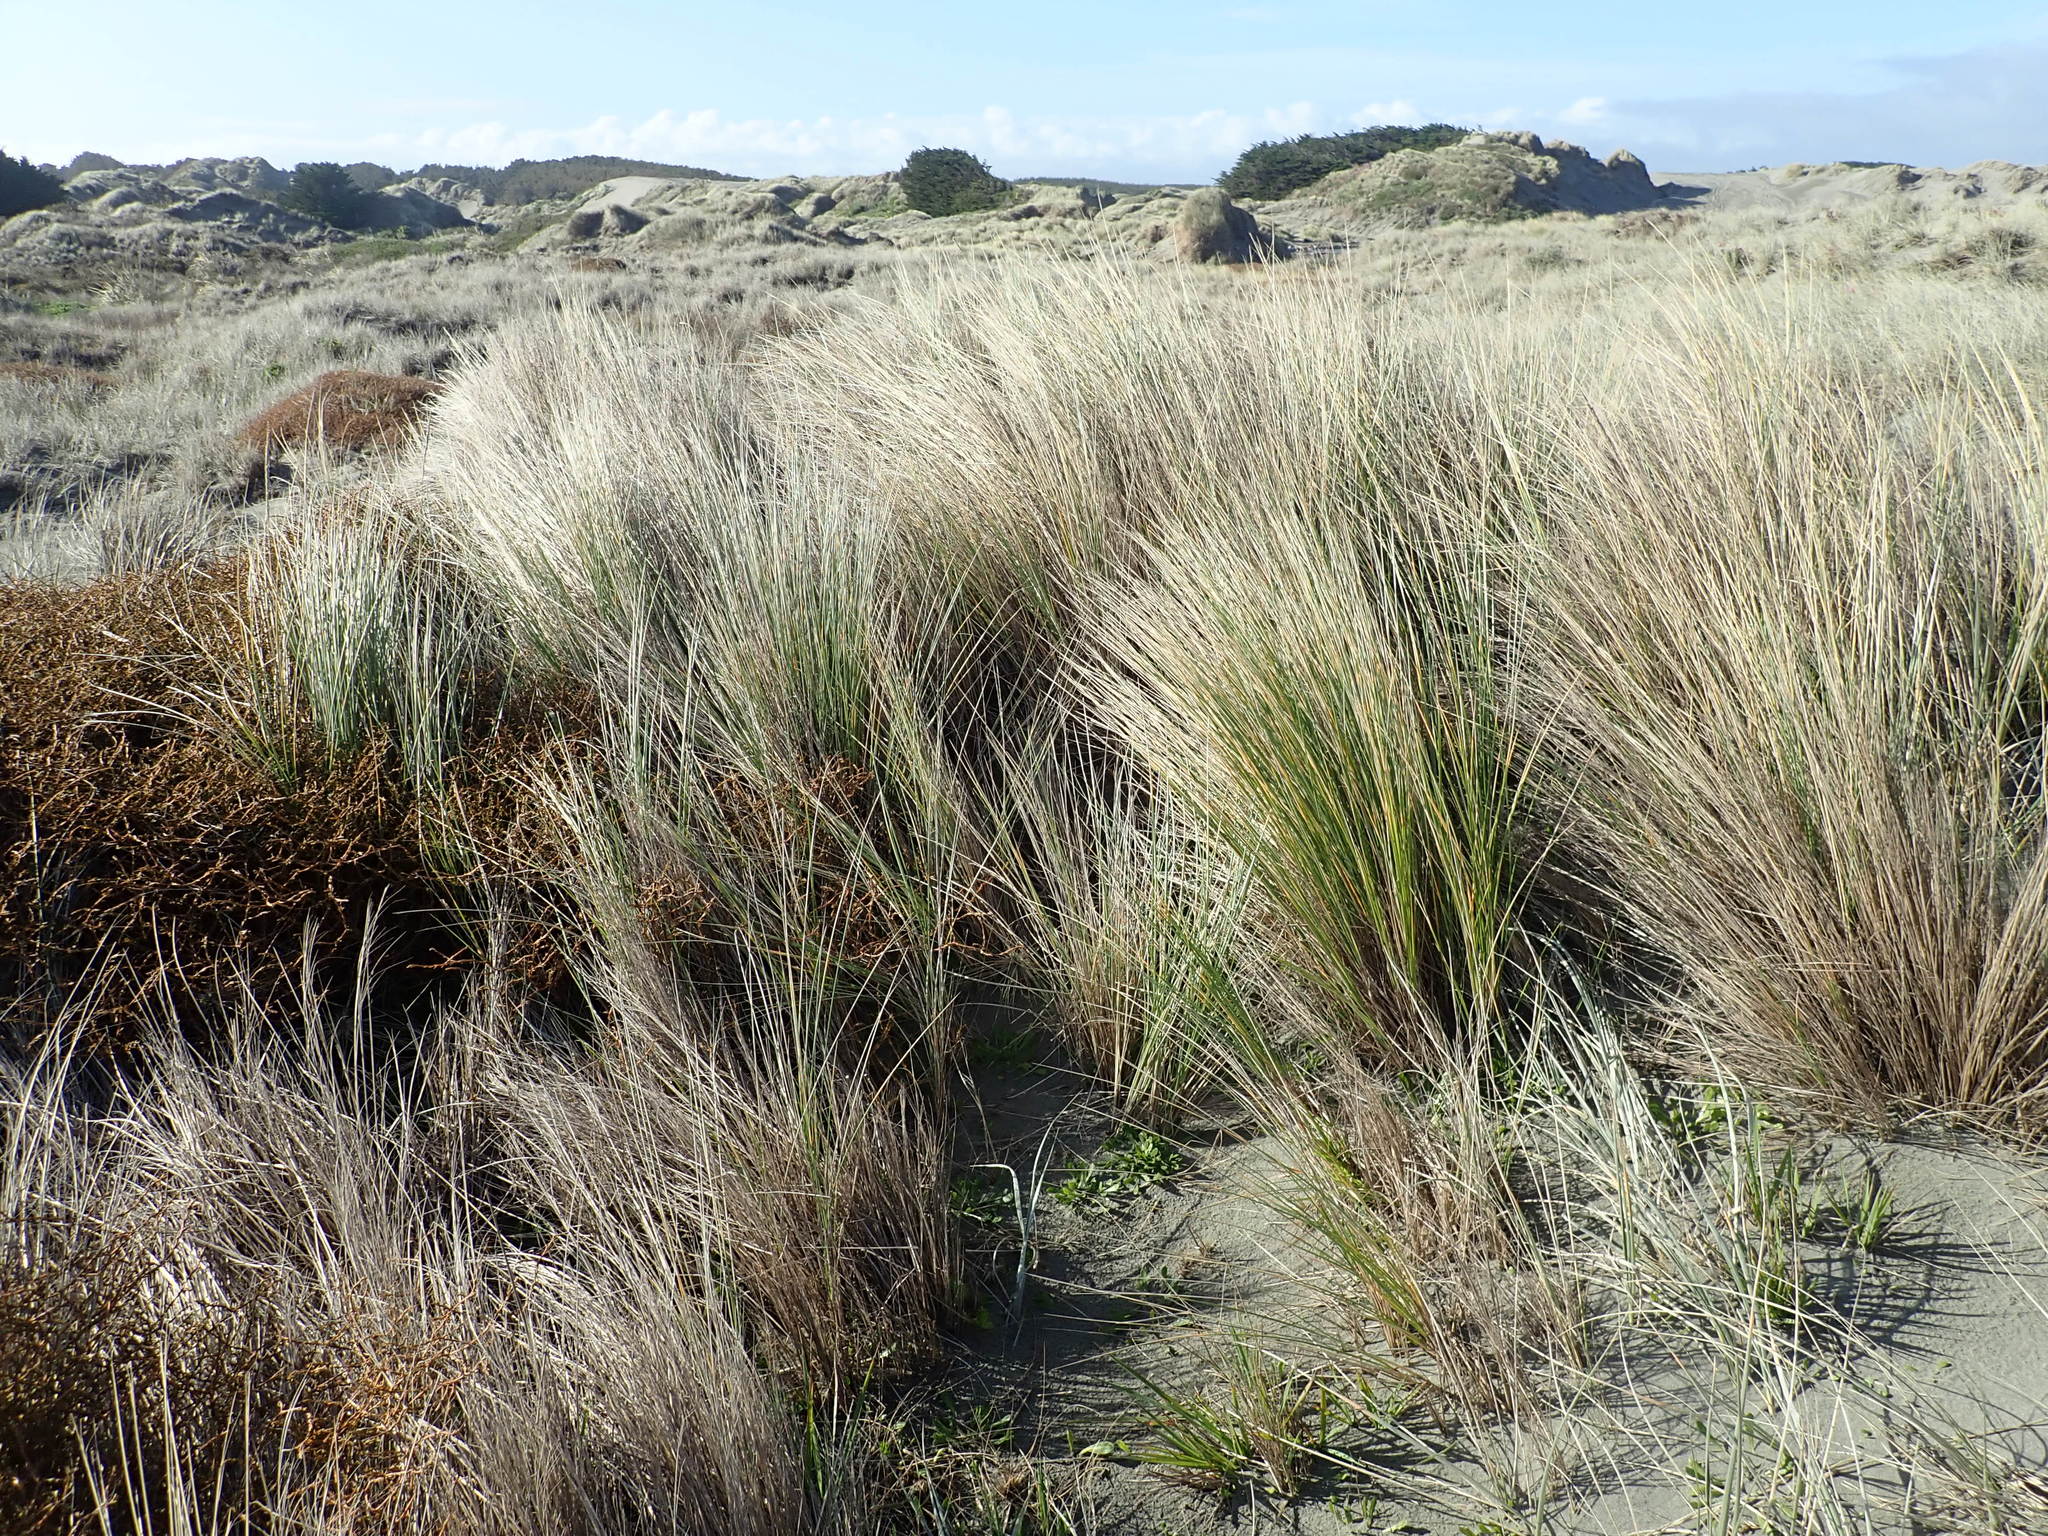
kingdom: Plantae
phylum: Tracheophyta
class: Liliopsida
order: Poales
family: Poaceae
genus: Calamagrostis
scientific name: Calamagrostis arenaria
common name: European beachgrass
